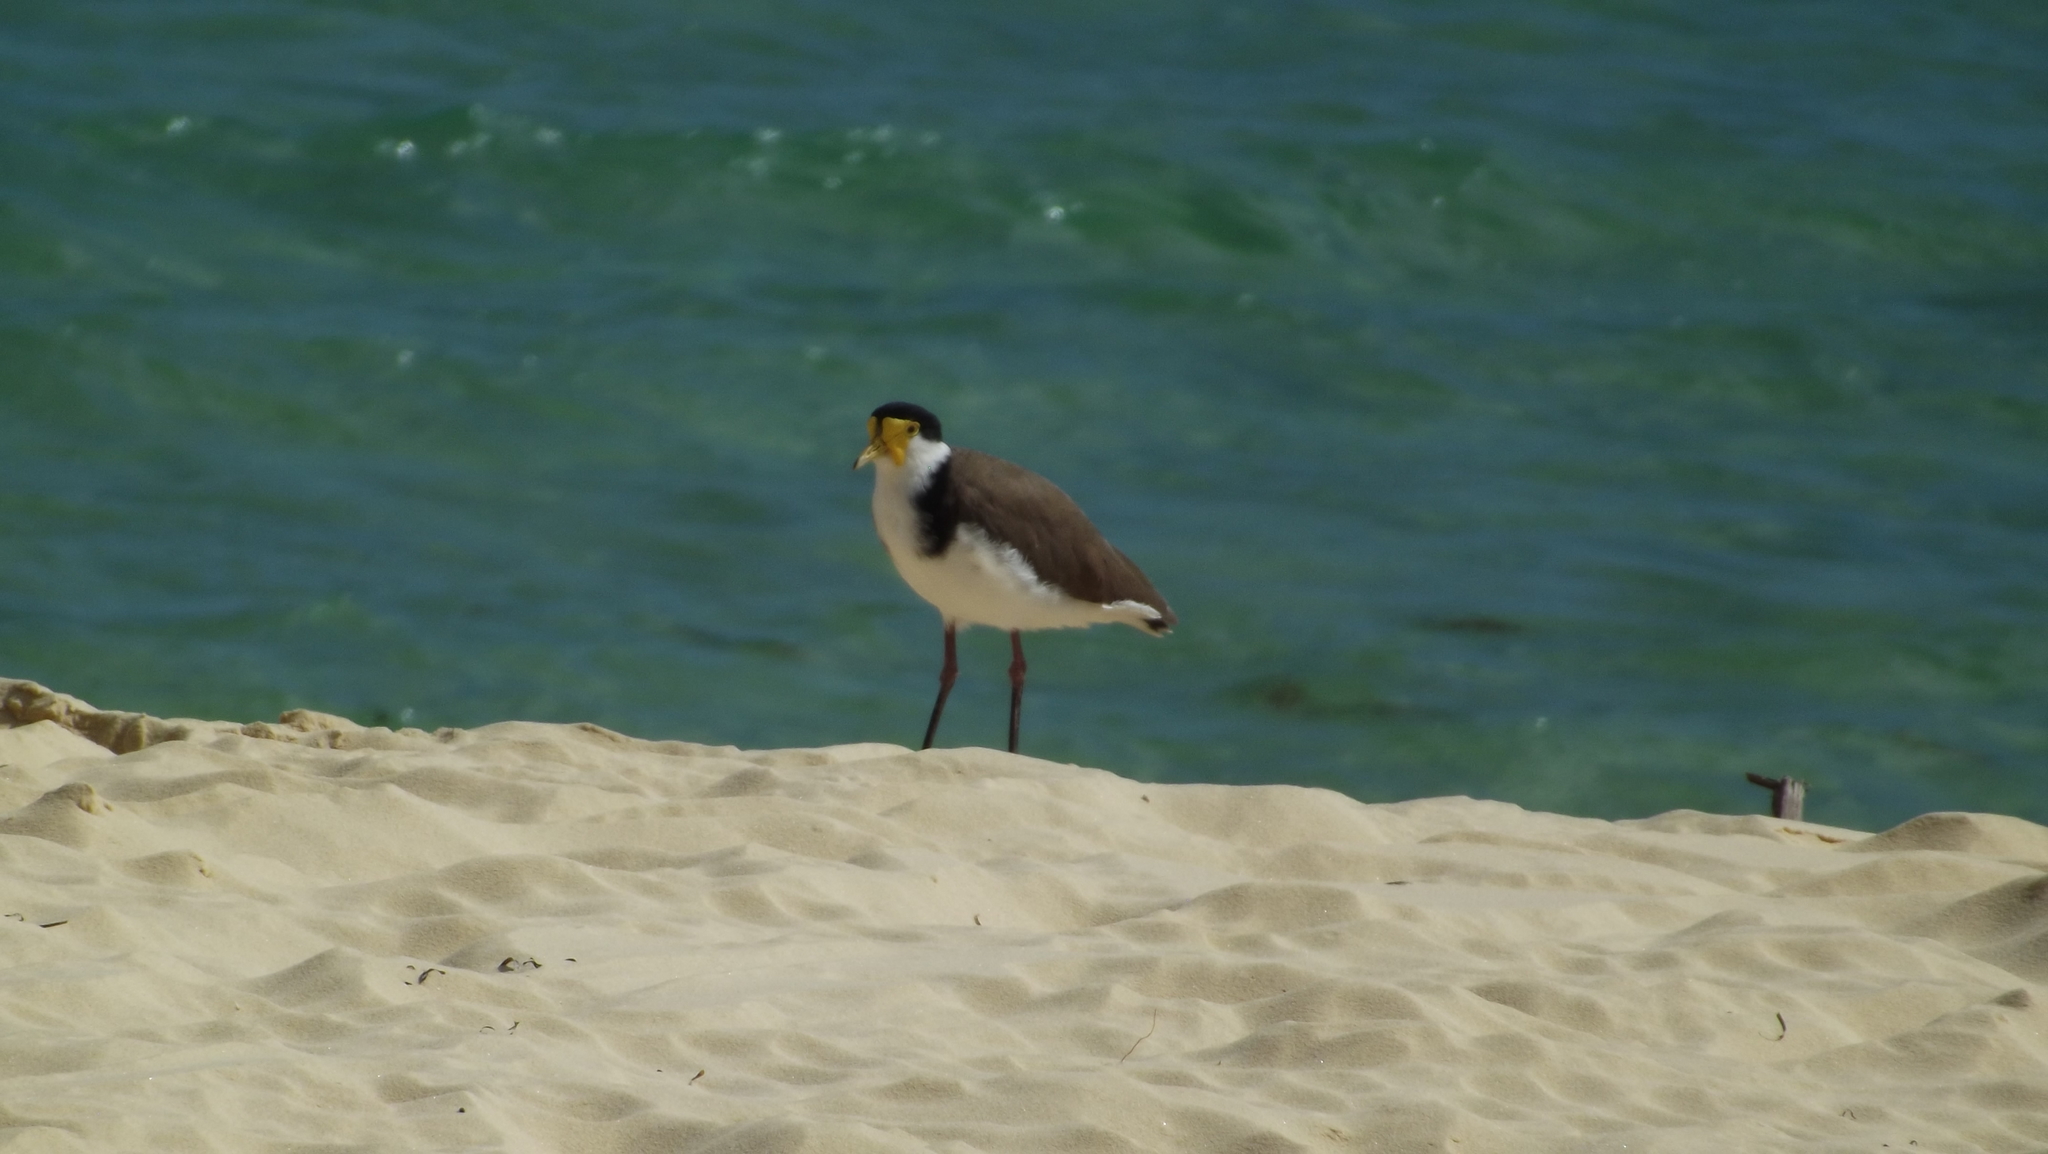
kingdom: Animalia
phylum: Chordata
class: Aves
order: Charadriiformes
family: Charadriidae
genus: Vanellus
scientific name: Vanellus miles
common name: Masked lapwing
